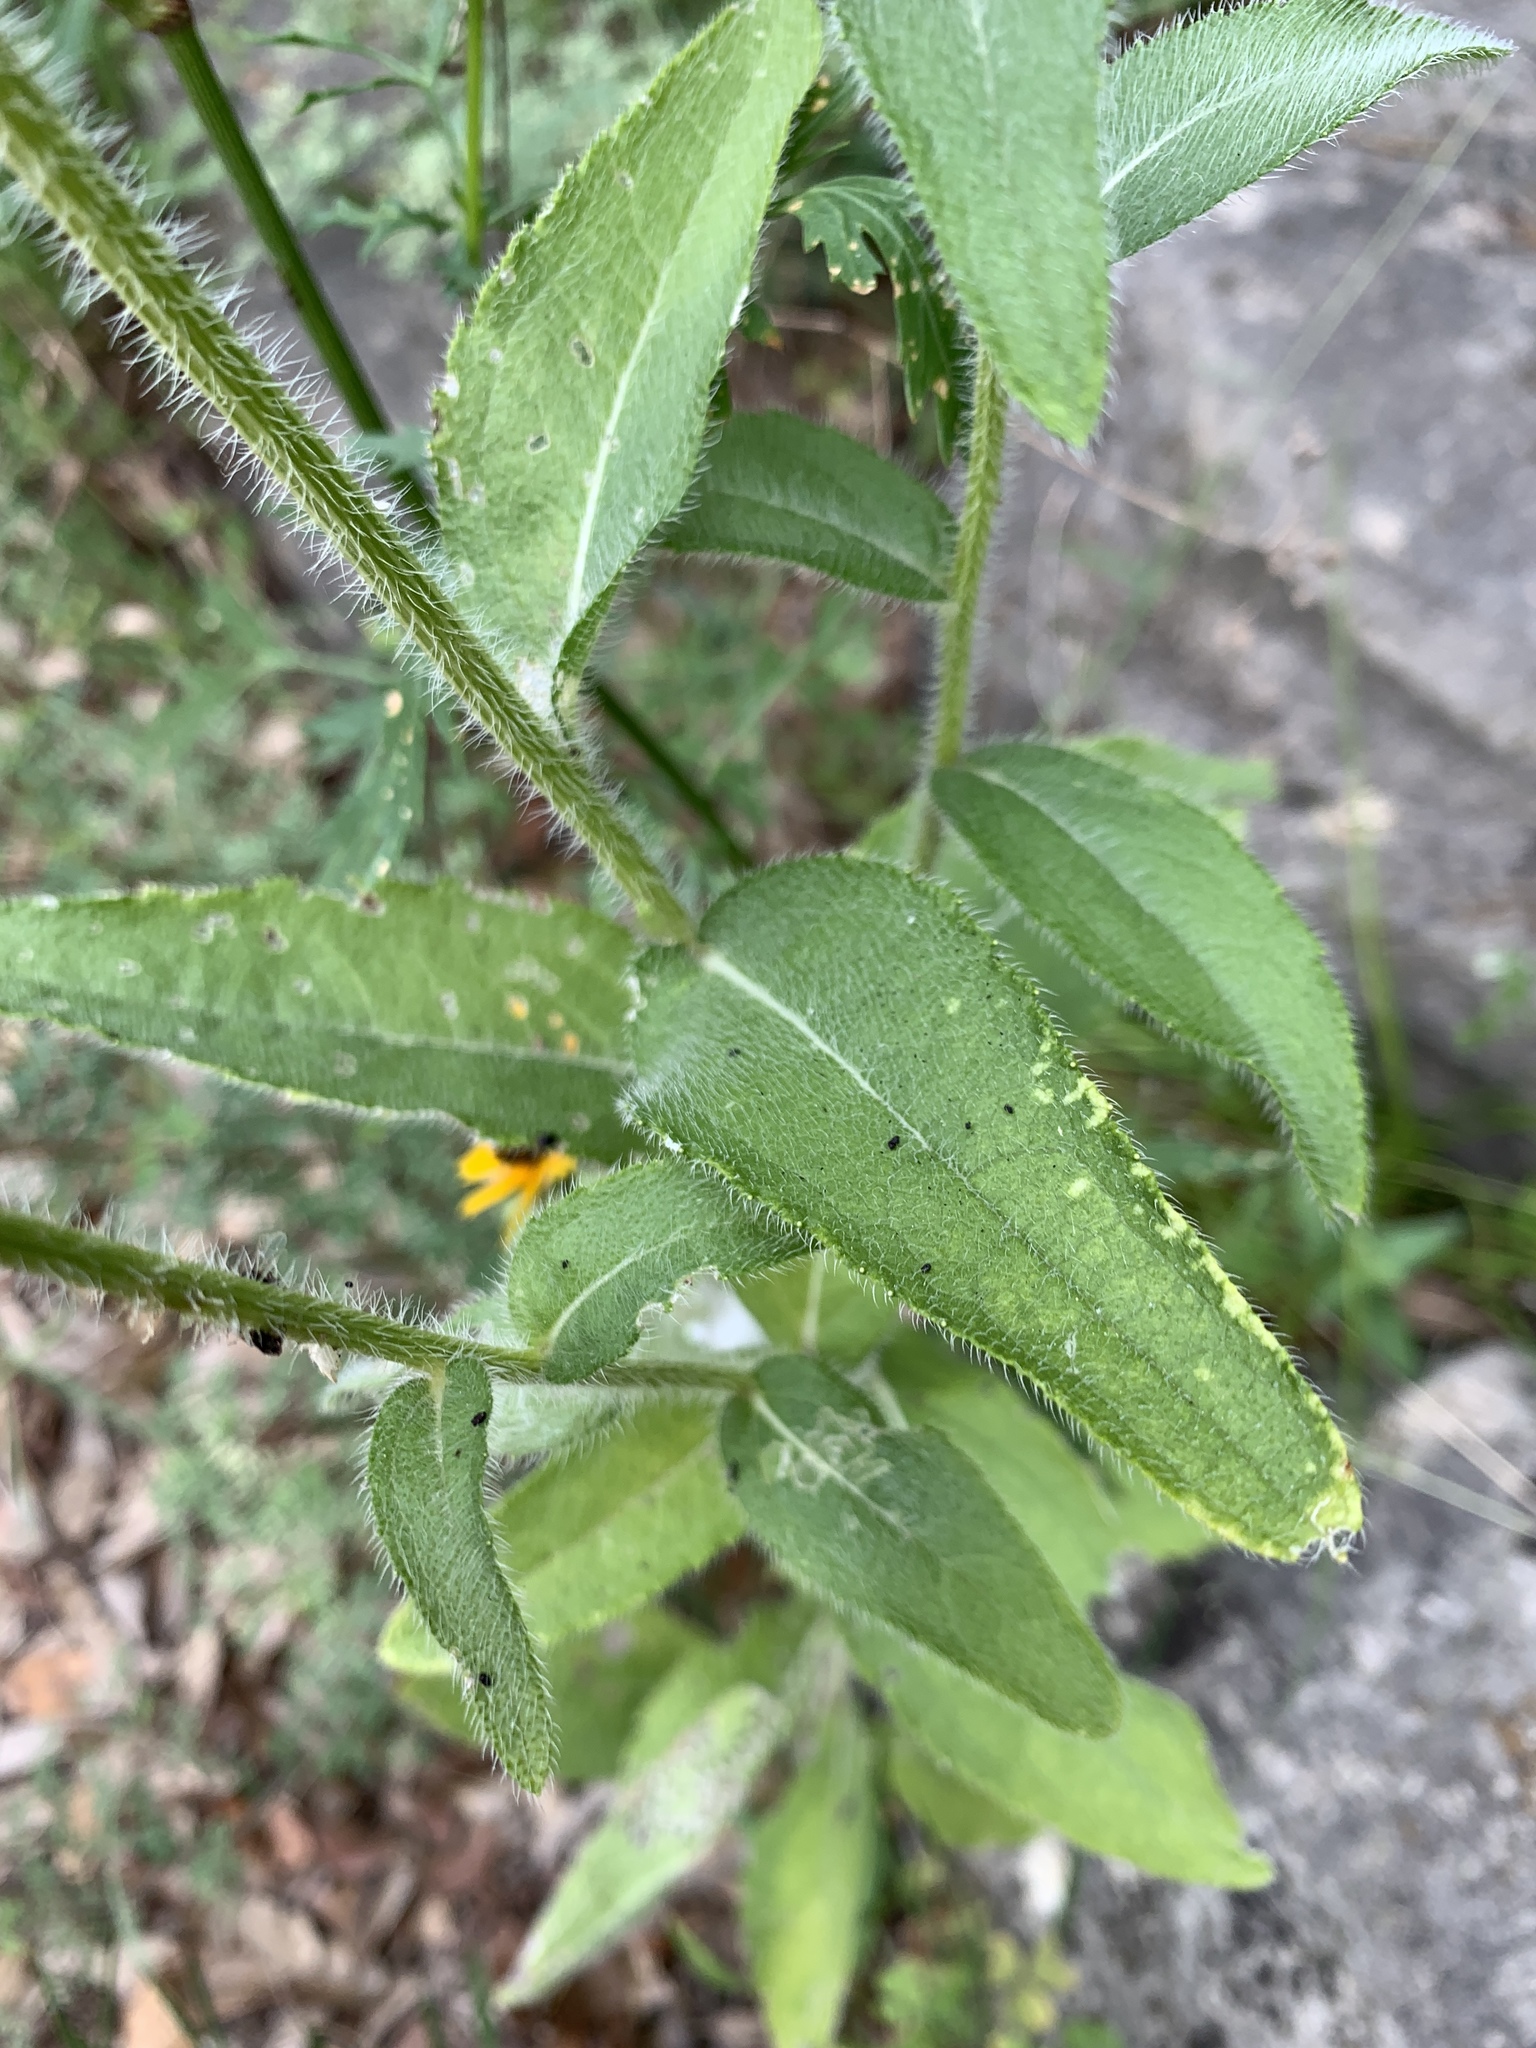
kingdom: Plantae
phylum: Tracheophyta
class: Magnoliopsida
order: Asterales
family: Asteraceae
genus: Rudbeckia
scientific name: Rudbeckia hirta
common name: Black-eyed-susan
